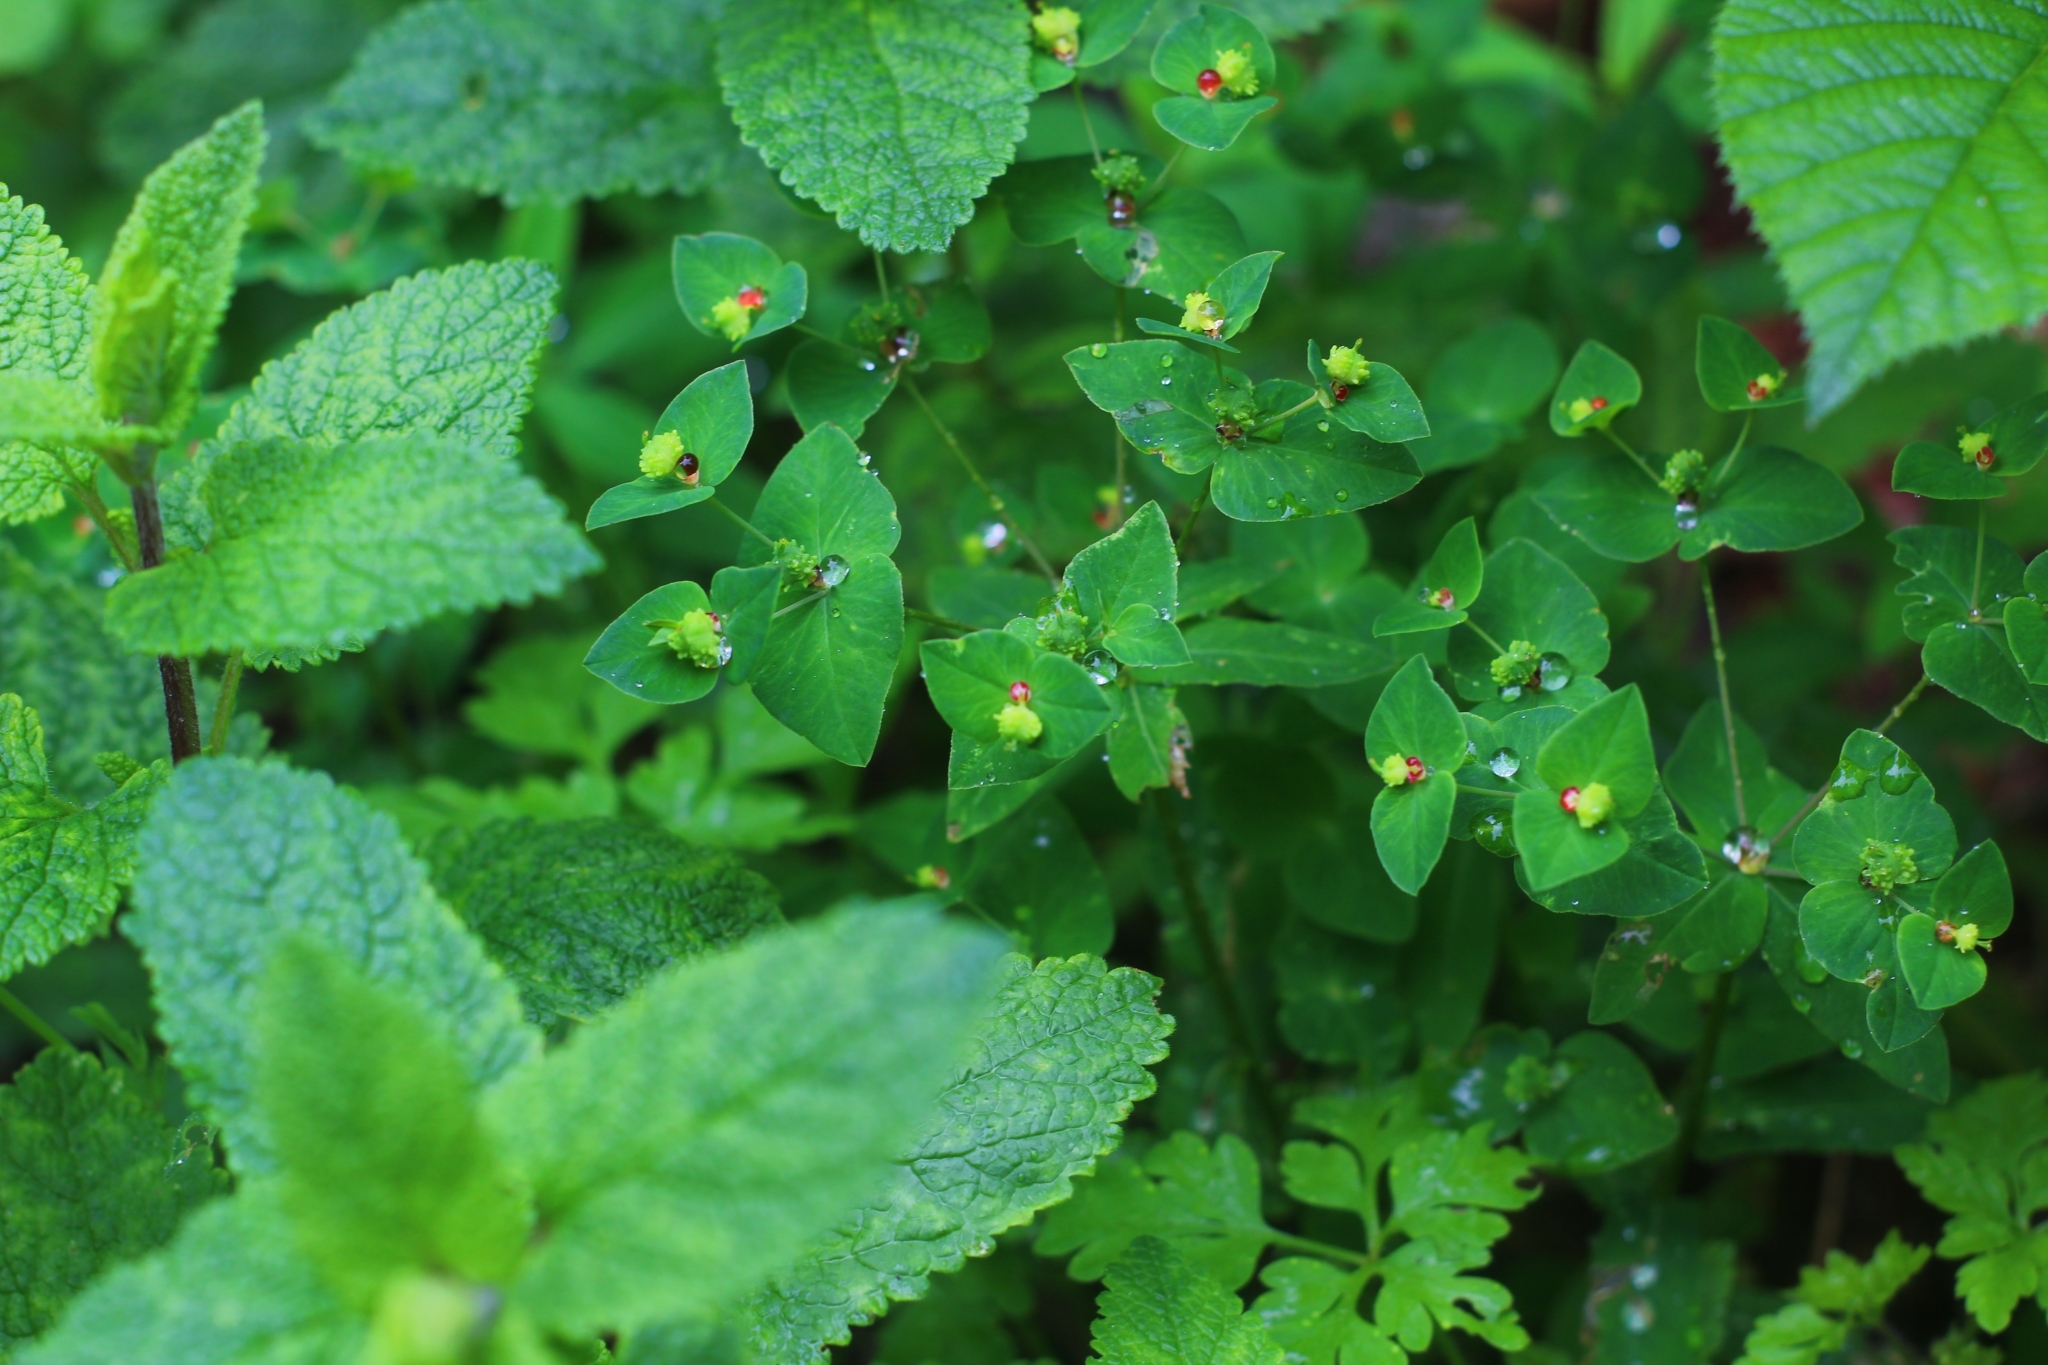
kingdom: Plantae
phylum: Tracheophyta
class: Magnoliopsida
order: Malpighiales
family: Euphorbiaceae
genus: Euphorbia
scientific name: Euphorbia dulcis
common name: Sweet spurge
